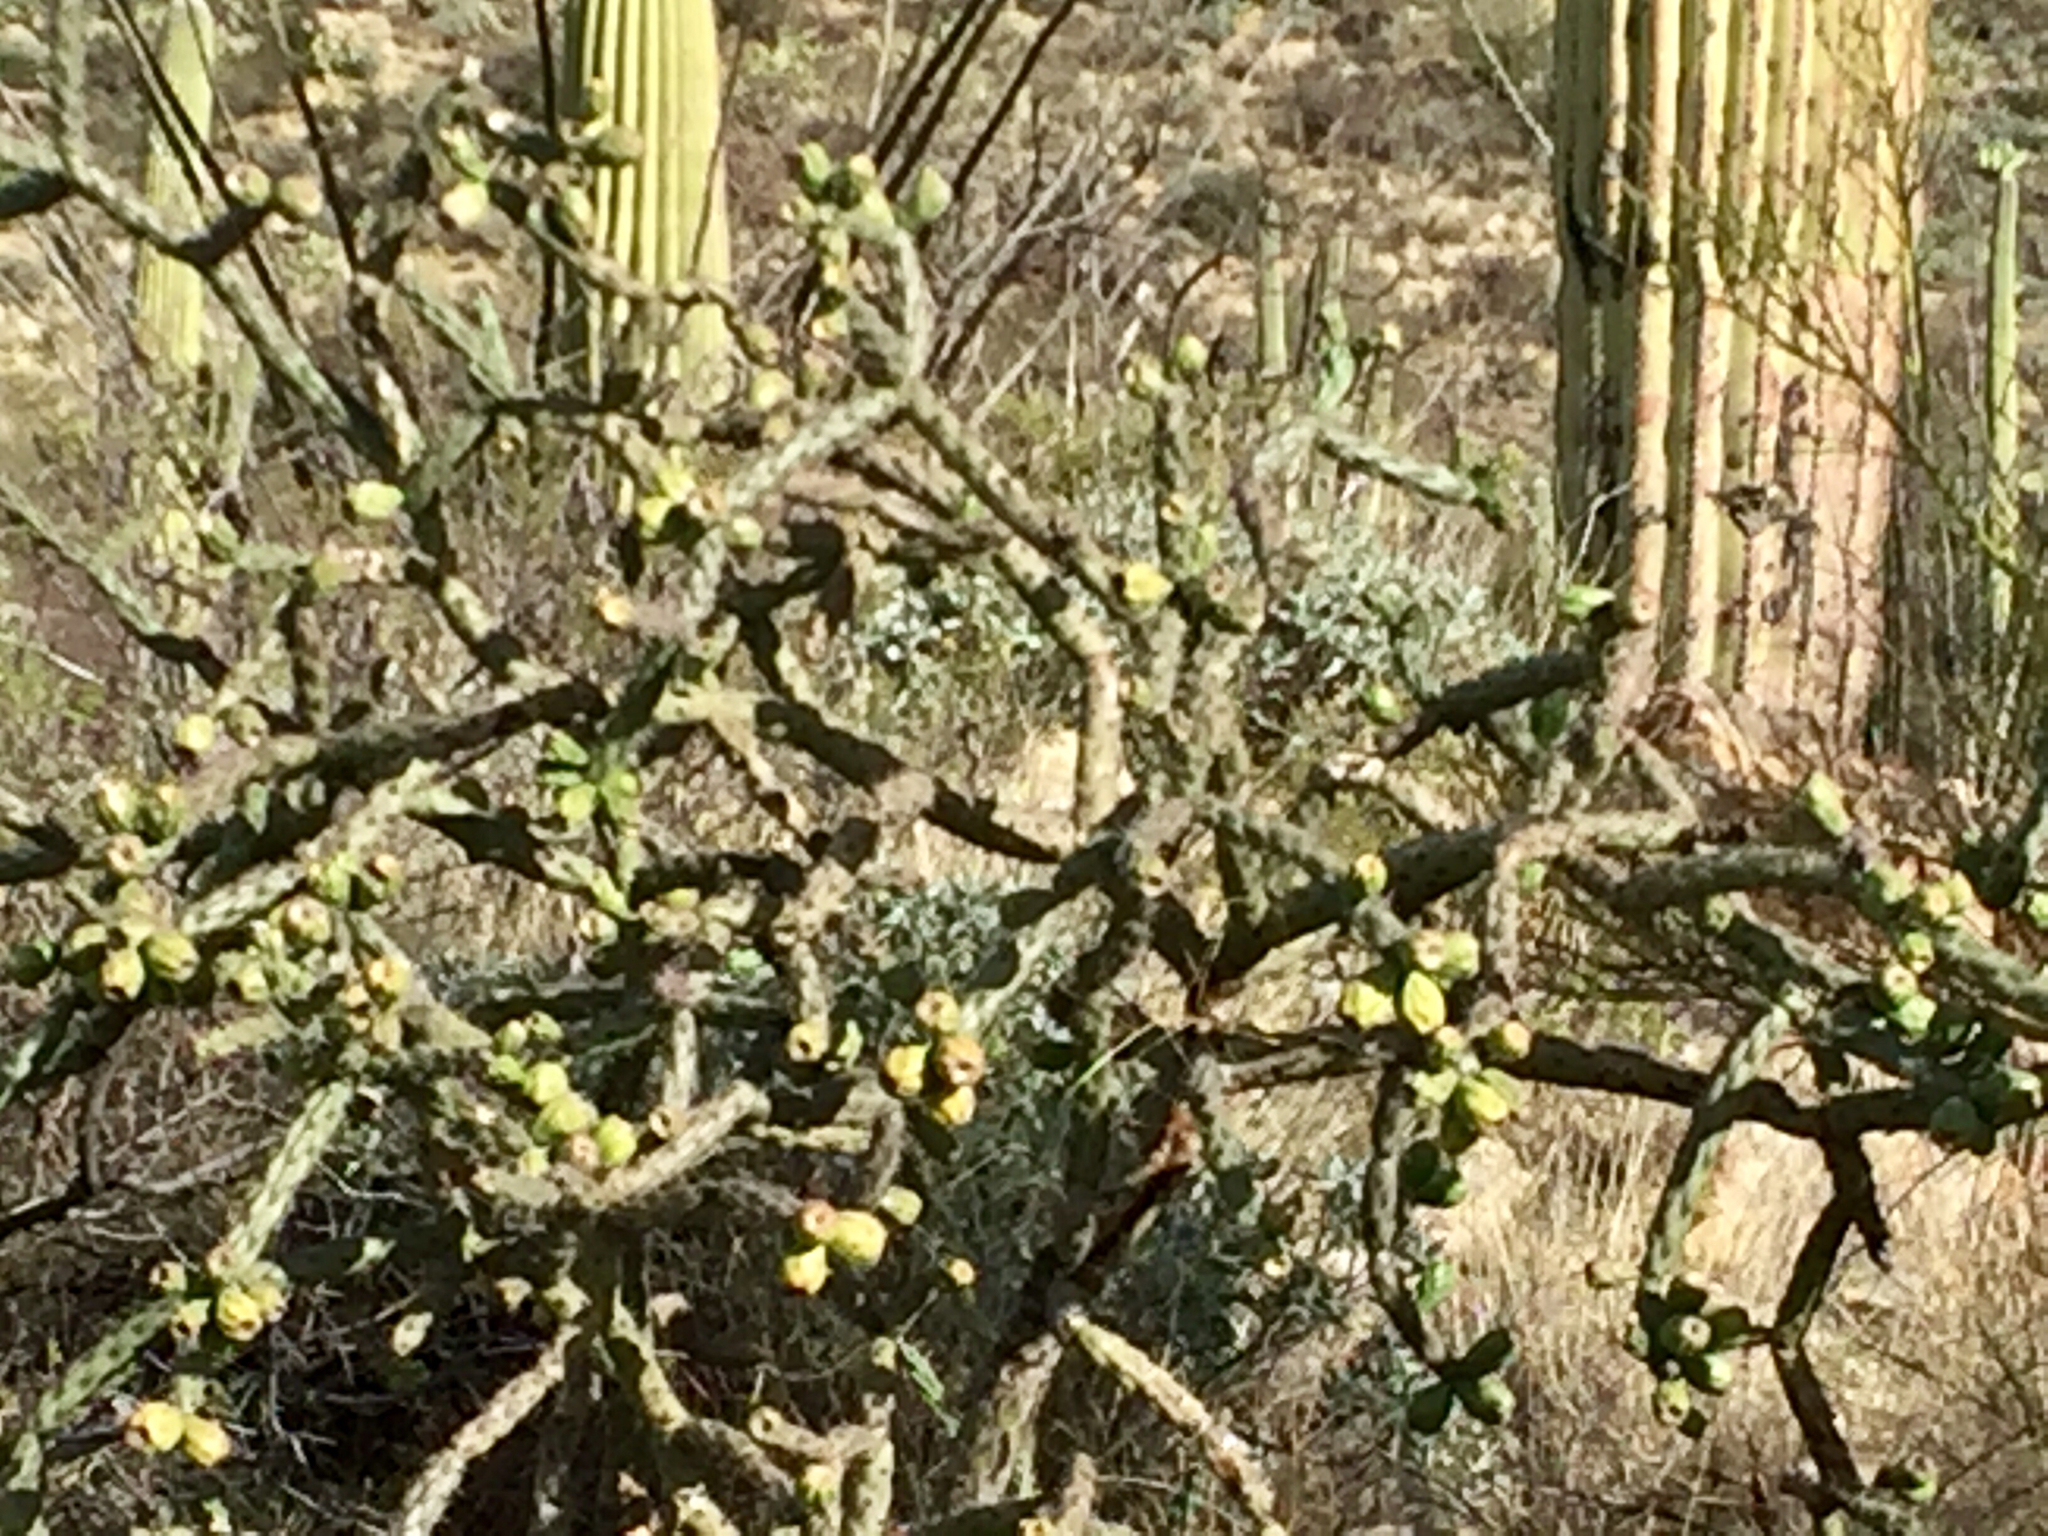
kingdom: Plantae
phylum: Tracheophyta
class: Magnoliopsida
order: Caryophyllales
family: Cactaceae
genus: Cylindropuntia
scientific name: Cylindropuntia thurberi
